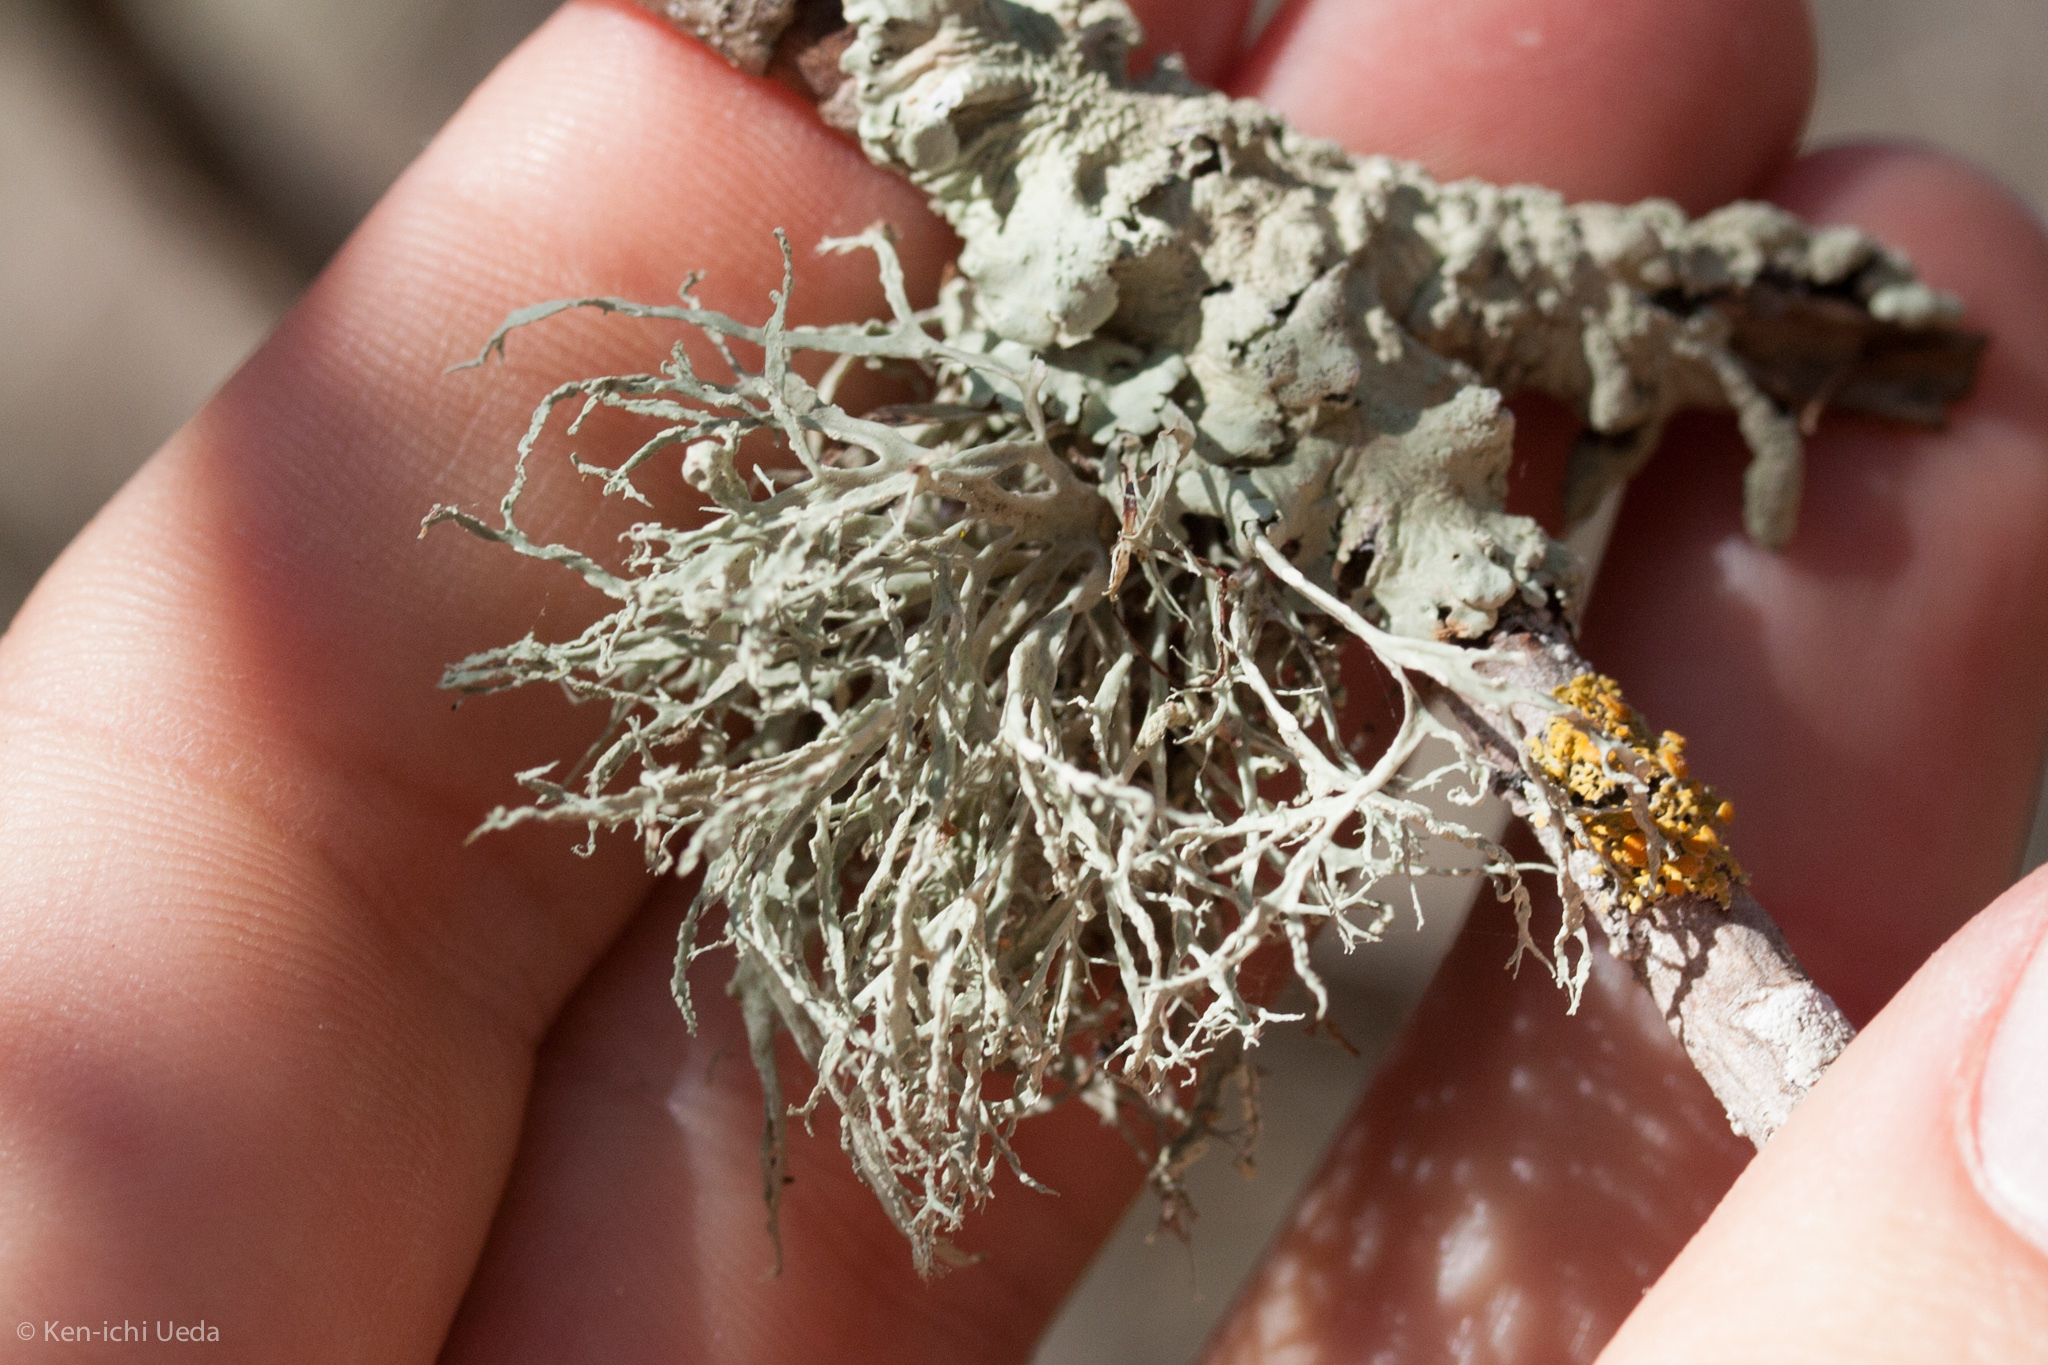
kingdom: Fungi
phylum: Ascomycota
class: Lecanoromycetes
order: Lecanorales
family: Ramalinaceae
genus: Ramalina
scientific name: Ramalina farinacea
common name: Farinose cartilage lichen
